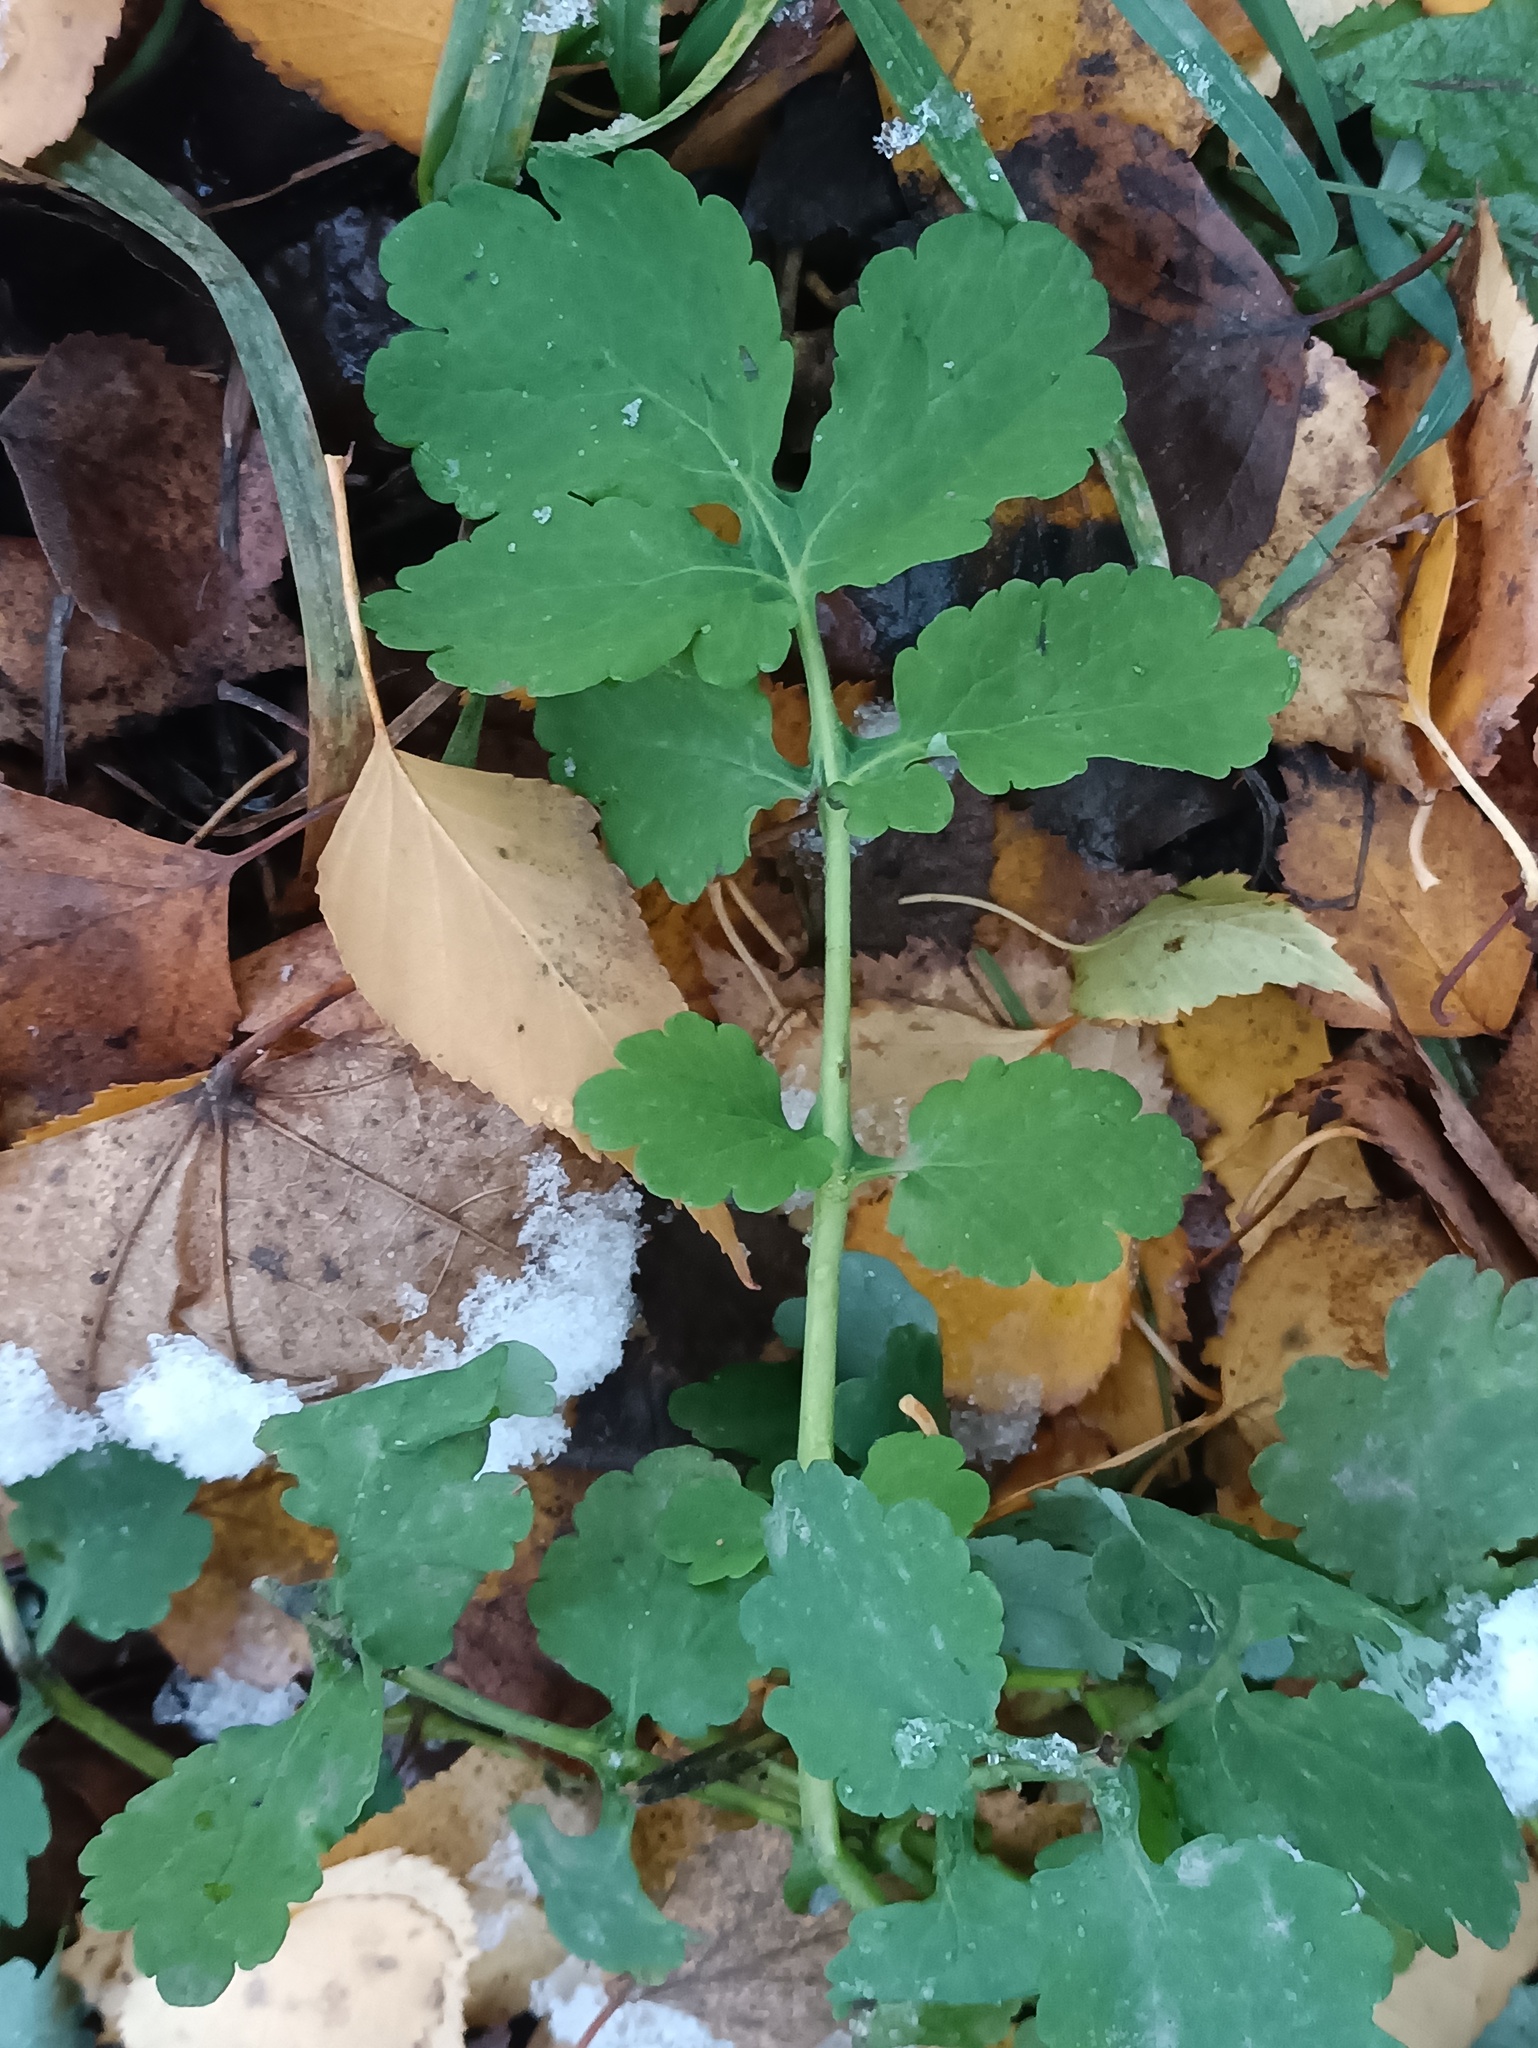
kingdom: Plantae
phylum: Tracheophyta
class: Magnoliopsida
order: Ranunculales
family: Papaveraceae
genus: Chelidonium
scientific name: Chelidonium majus
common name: Greater celandine
